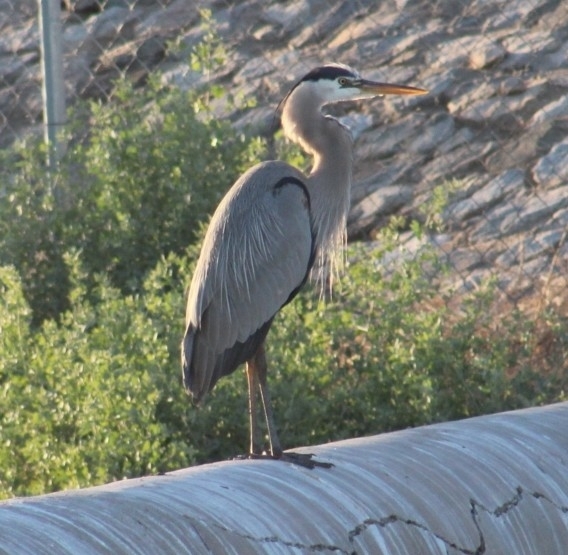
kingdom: Animalia
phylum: Chordata
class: Aves
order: Pelecaniformes
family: Ardeidae
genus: Ardea
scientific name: Ardea herodias
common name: Great blue heron
